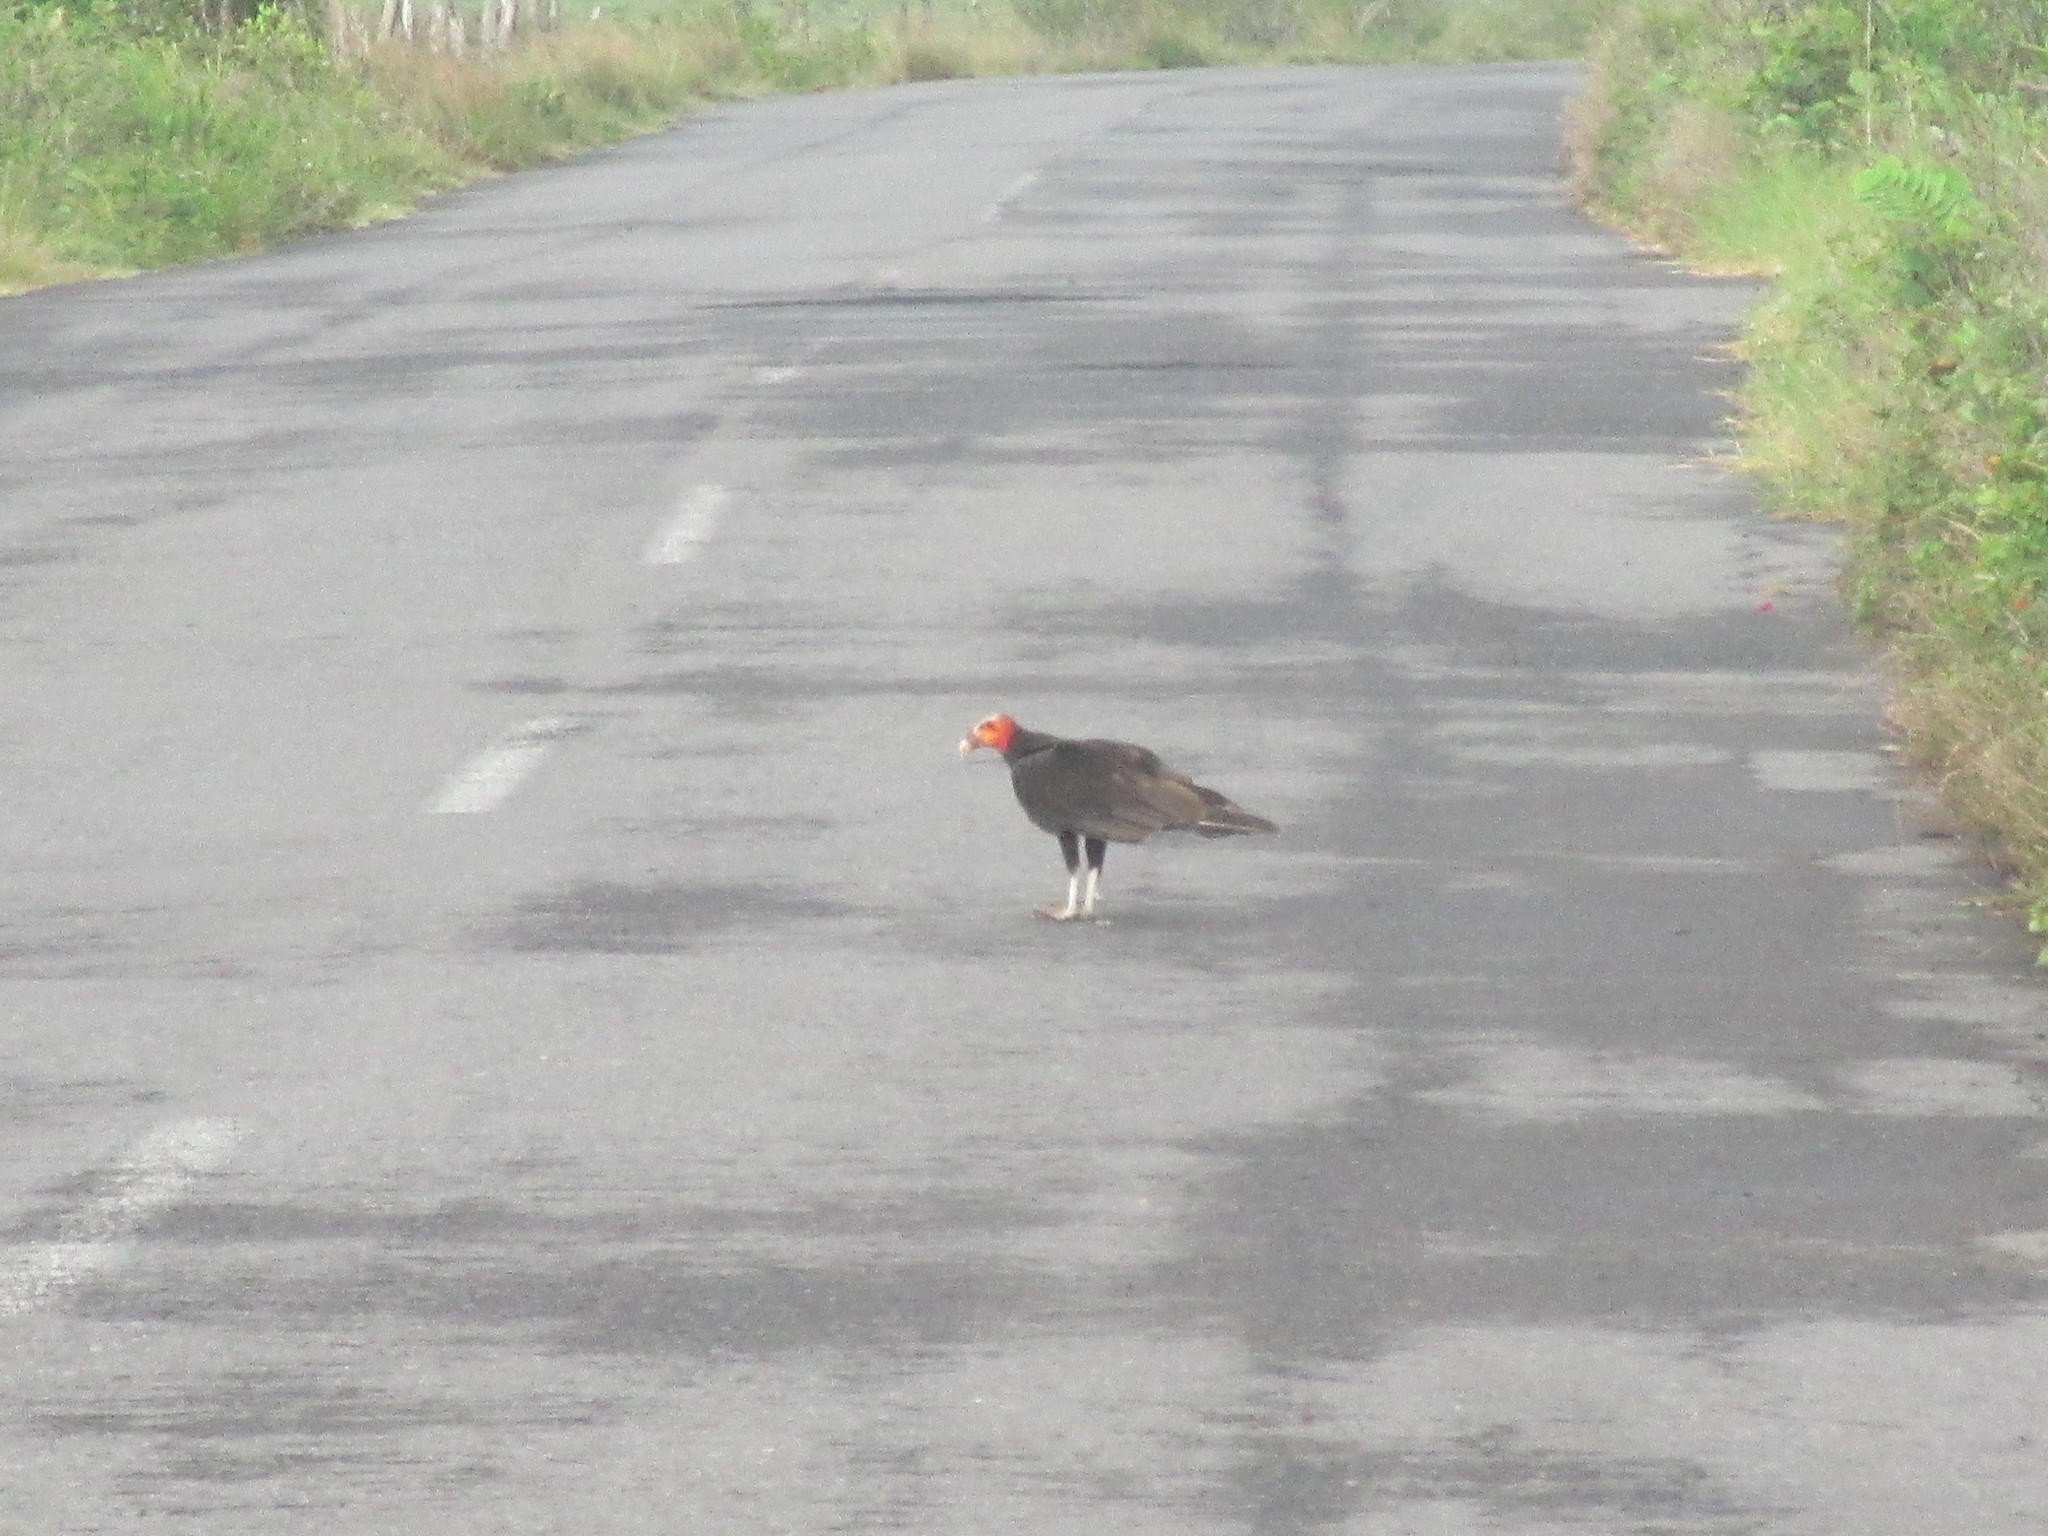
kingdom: Animalia
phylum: Chordata
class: Aves
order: Accipitriformes
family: Cathartidae
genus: Cathartes
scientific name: Cathartes burrovianus
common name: Lesser yellow-headed vulture
